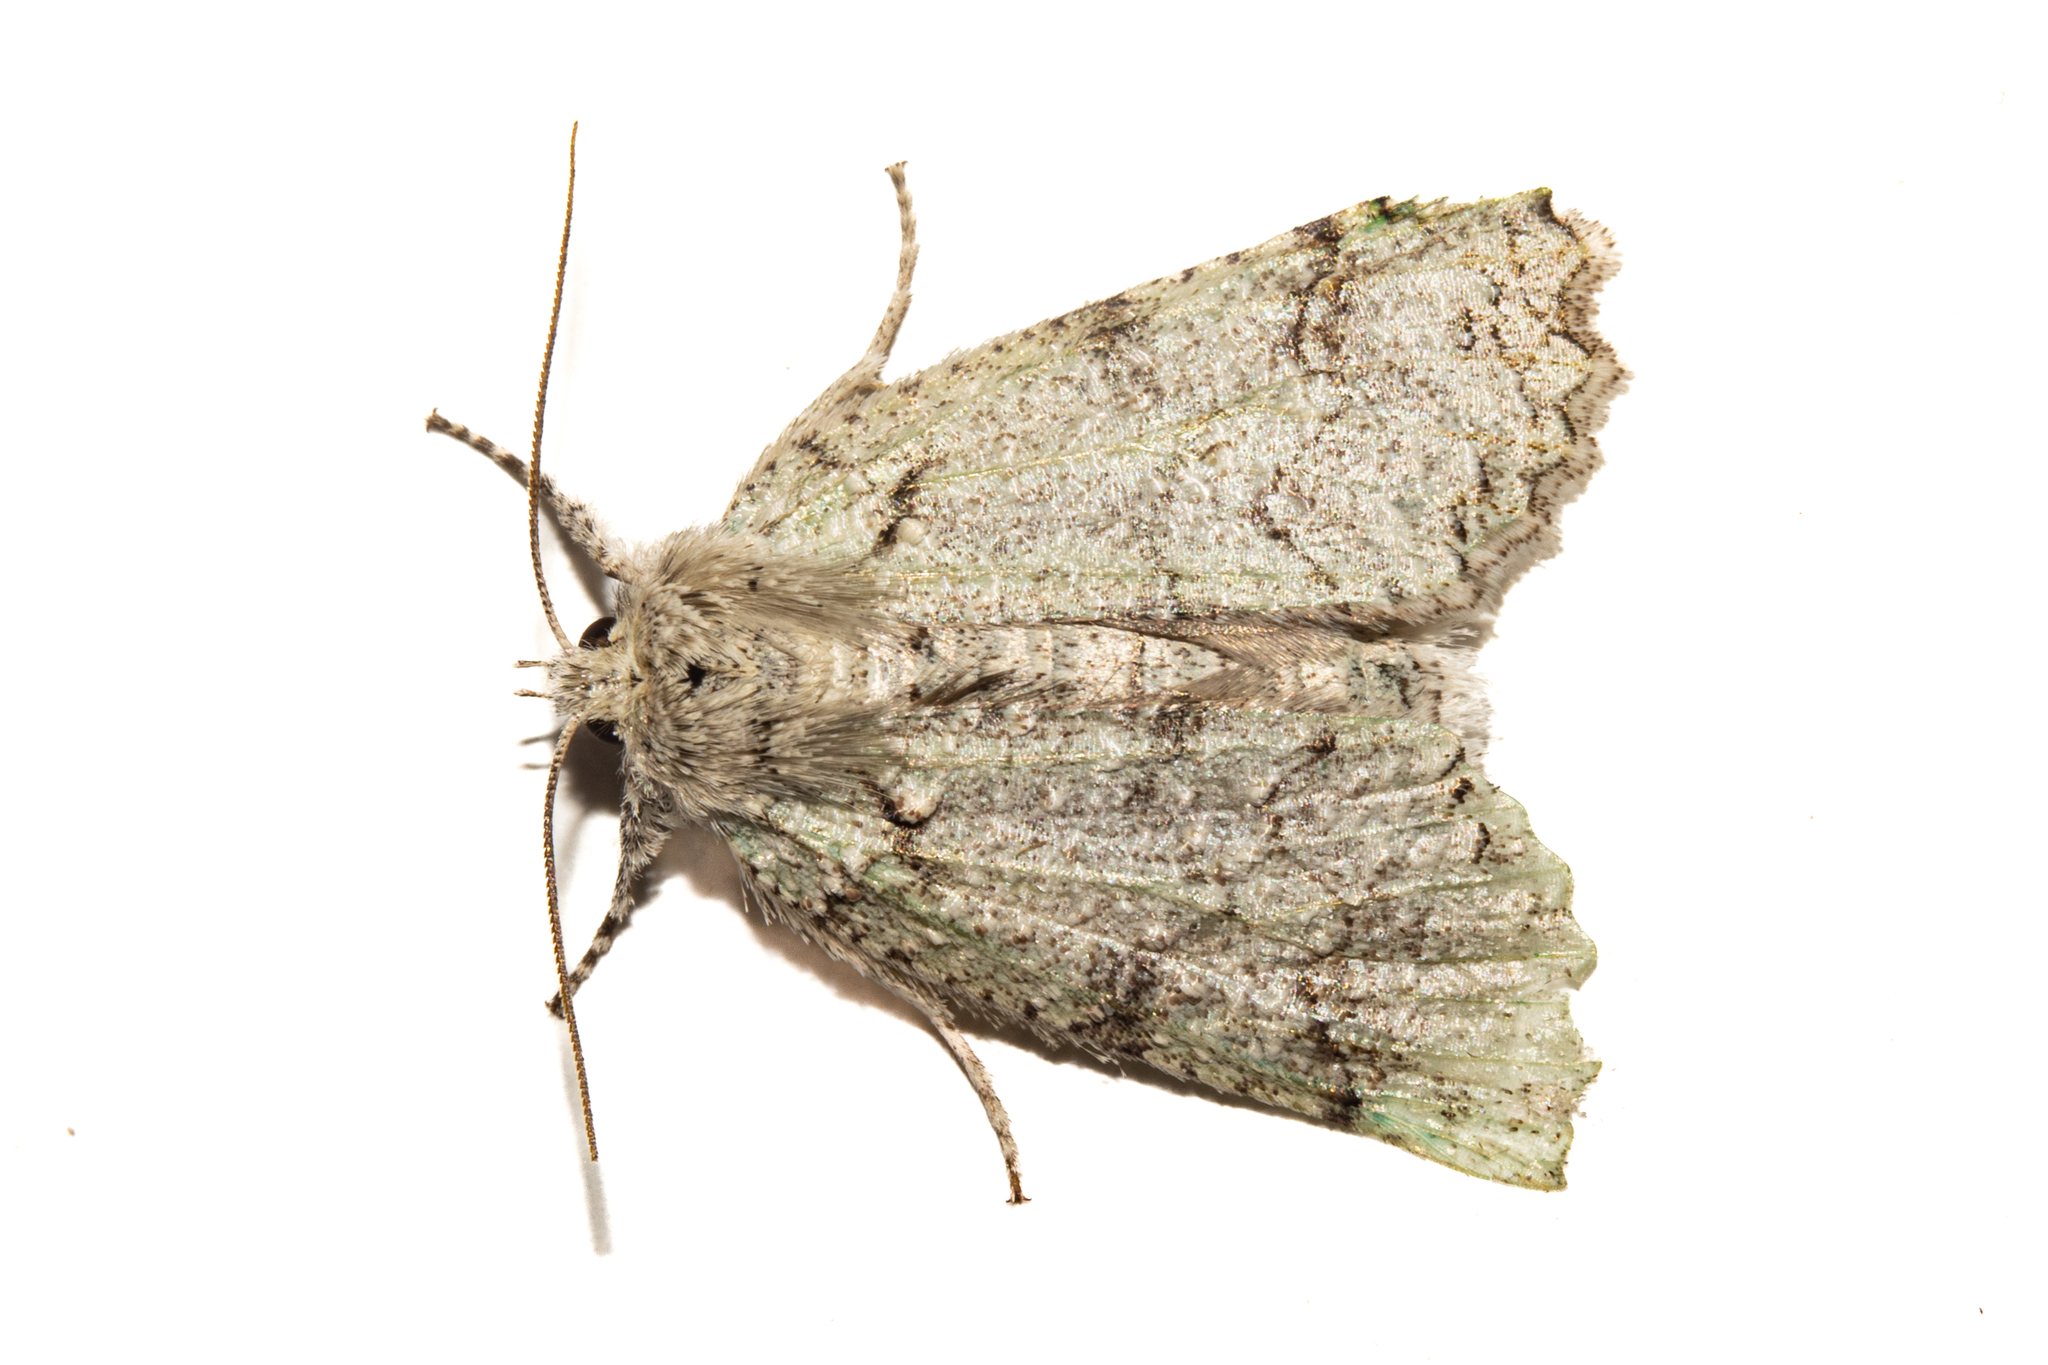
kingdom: Animalia
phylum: Arthropoda
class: Insecta
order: Lepidoptera
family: Geometridae
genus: Declana
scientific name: Declana floccosa
